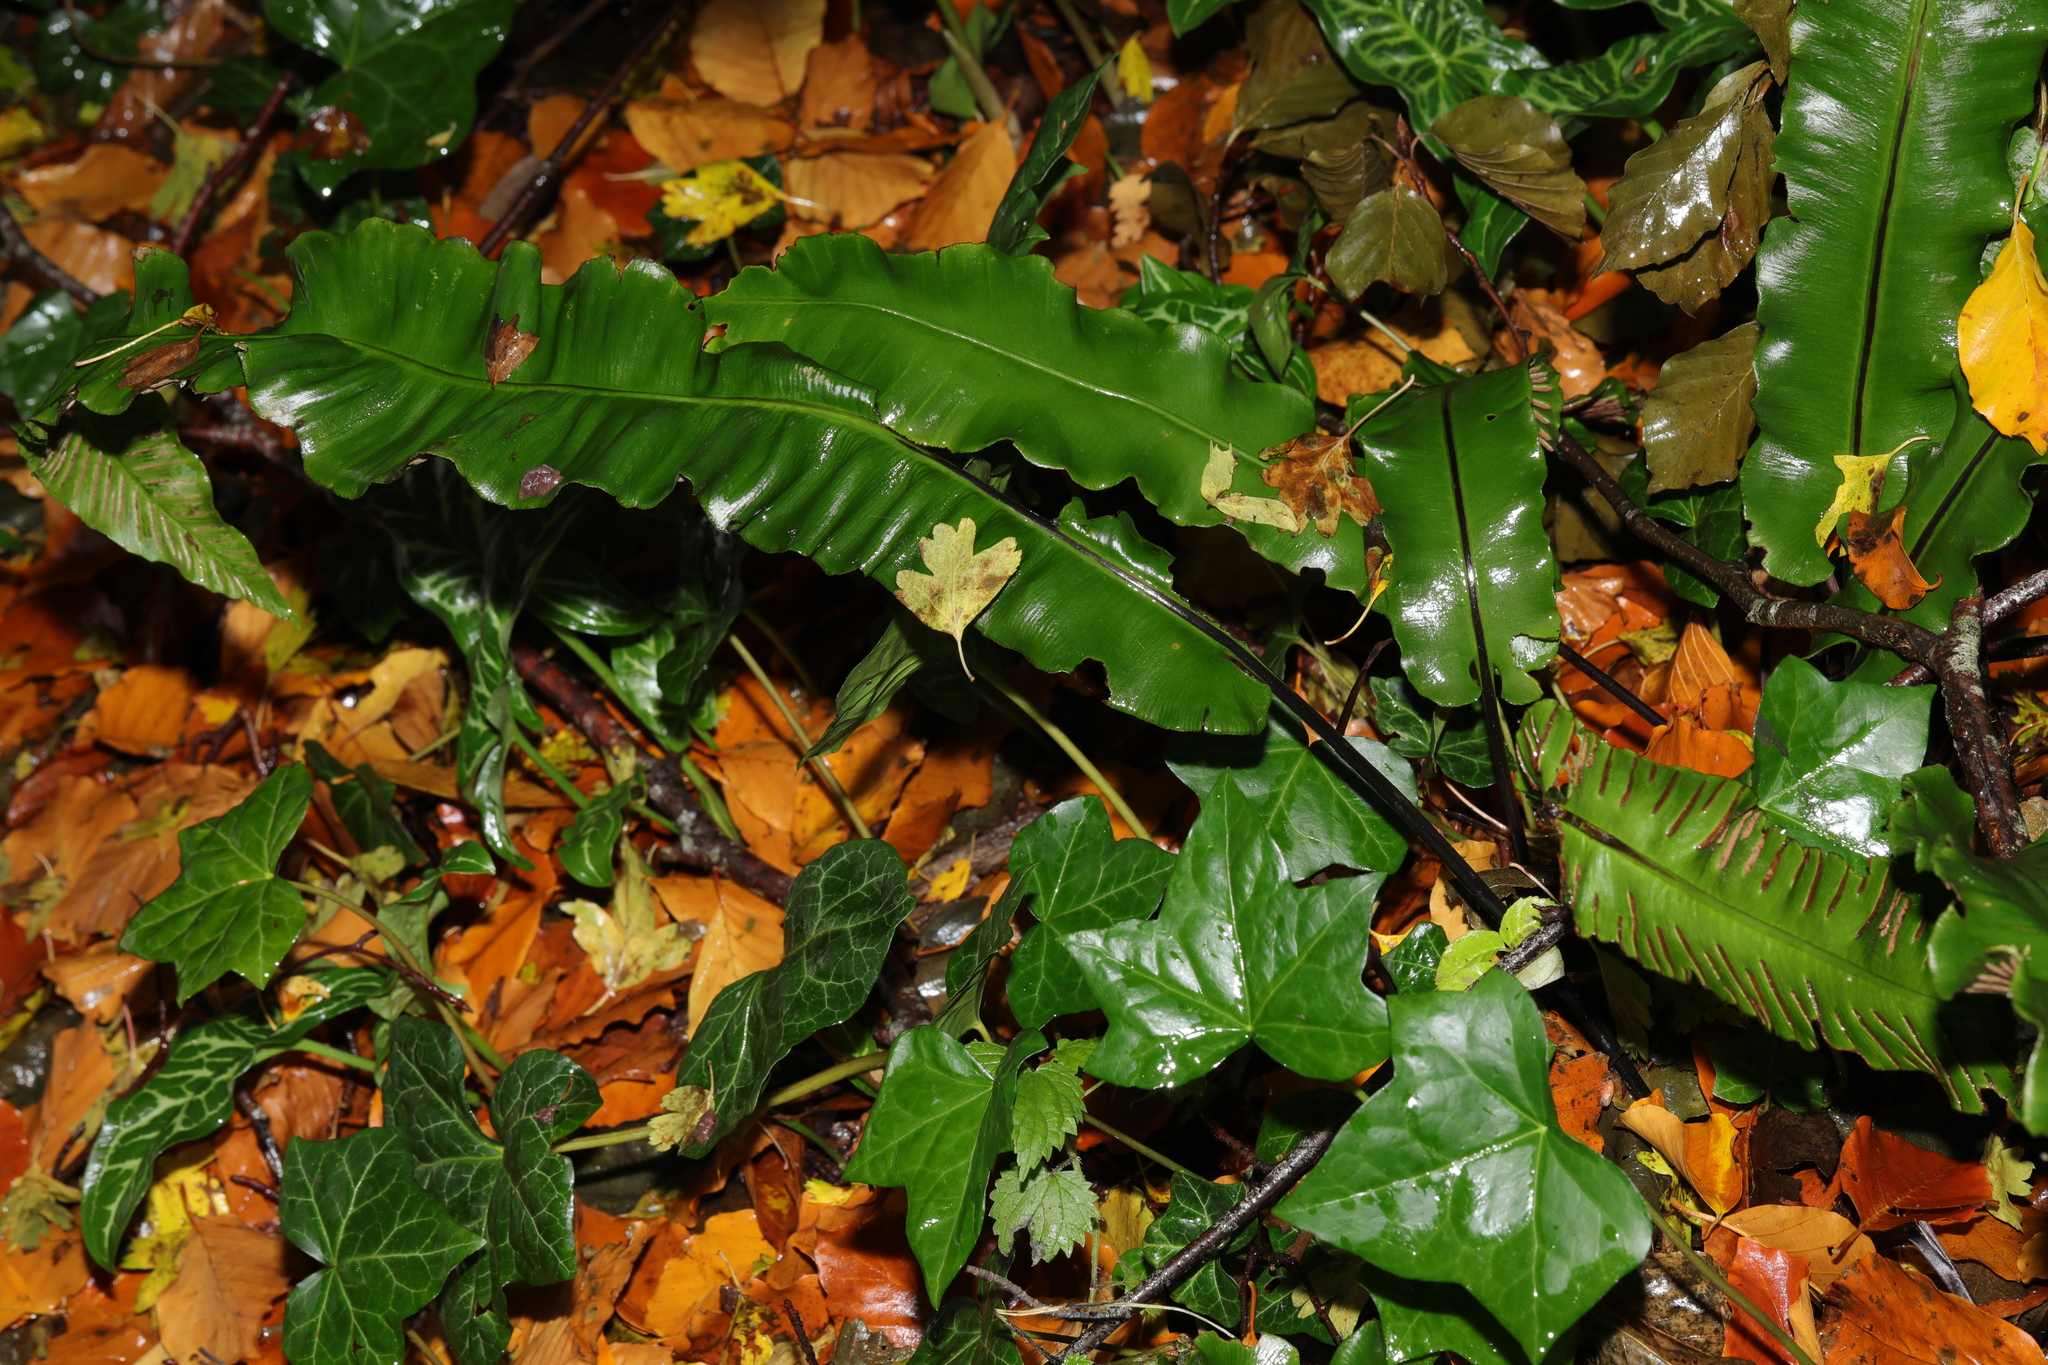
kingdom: Plantae
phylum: Tracheophyta
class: Polypodiopsida
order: Polypodiales
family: Aspleniaceae
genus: Asplenium
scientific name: Asplenium scolopendrium
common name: Hart's-tongue fern
